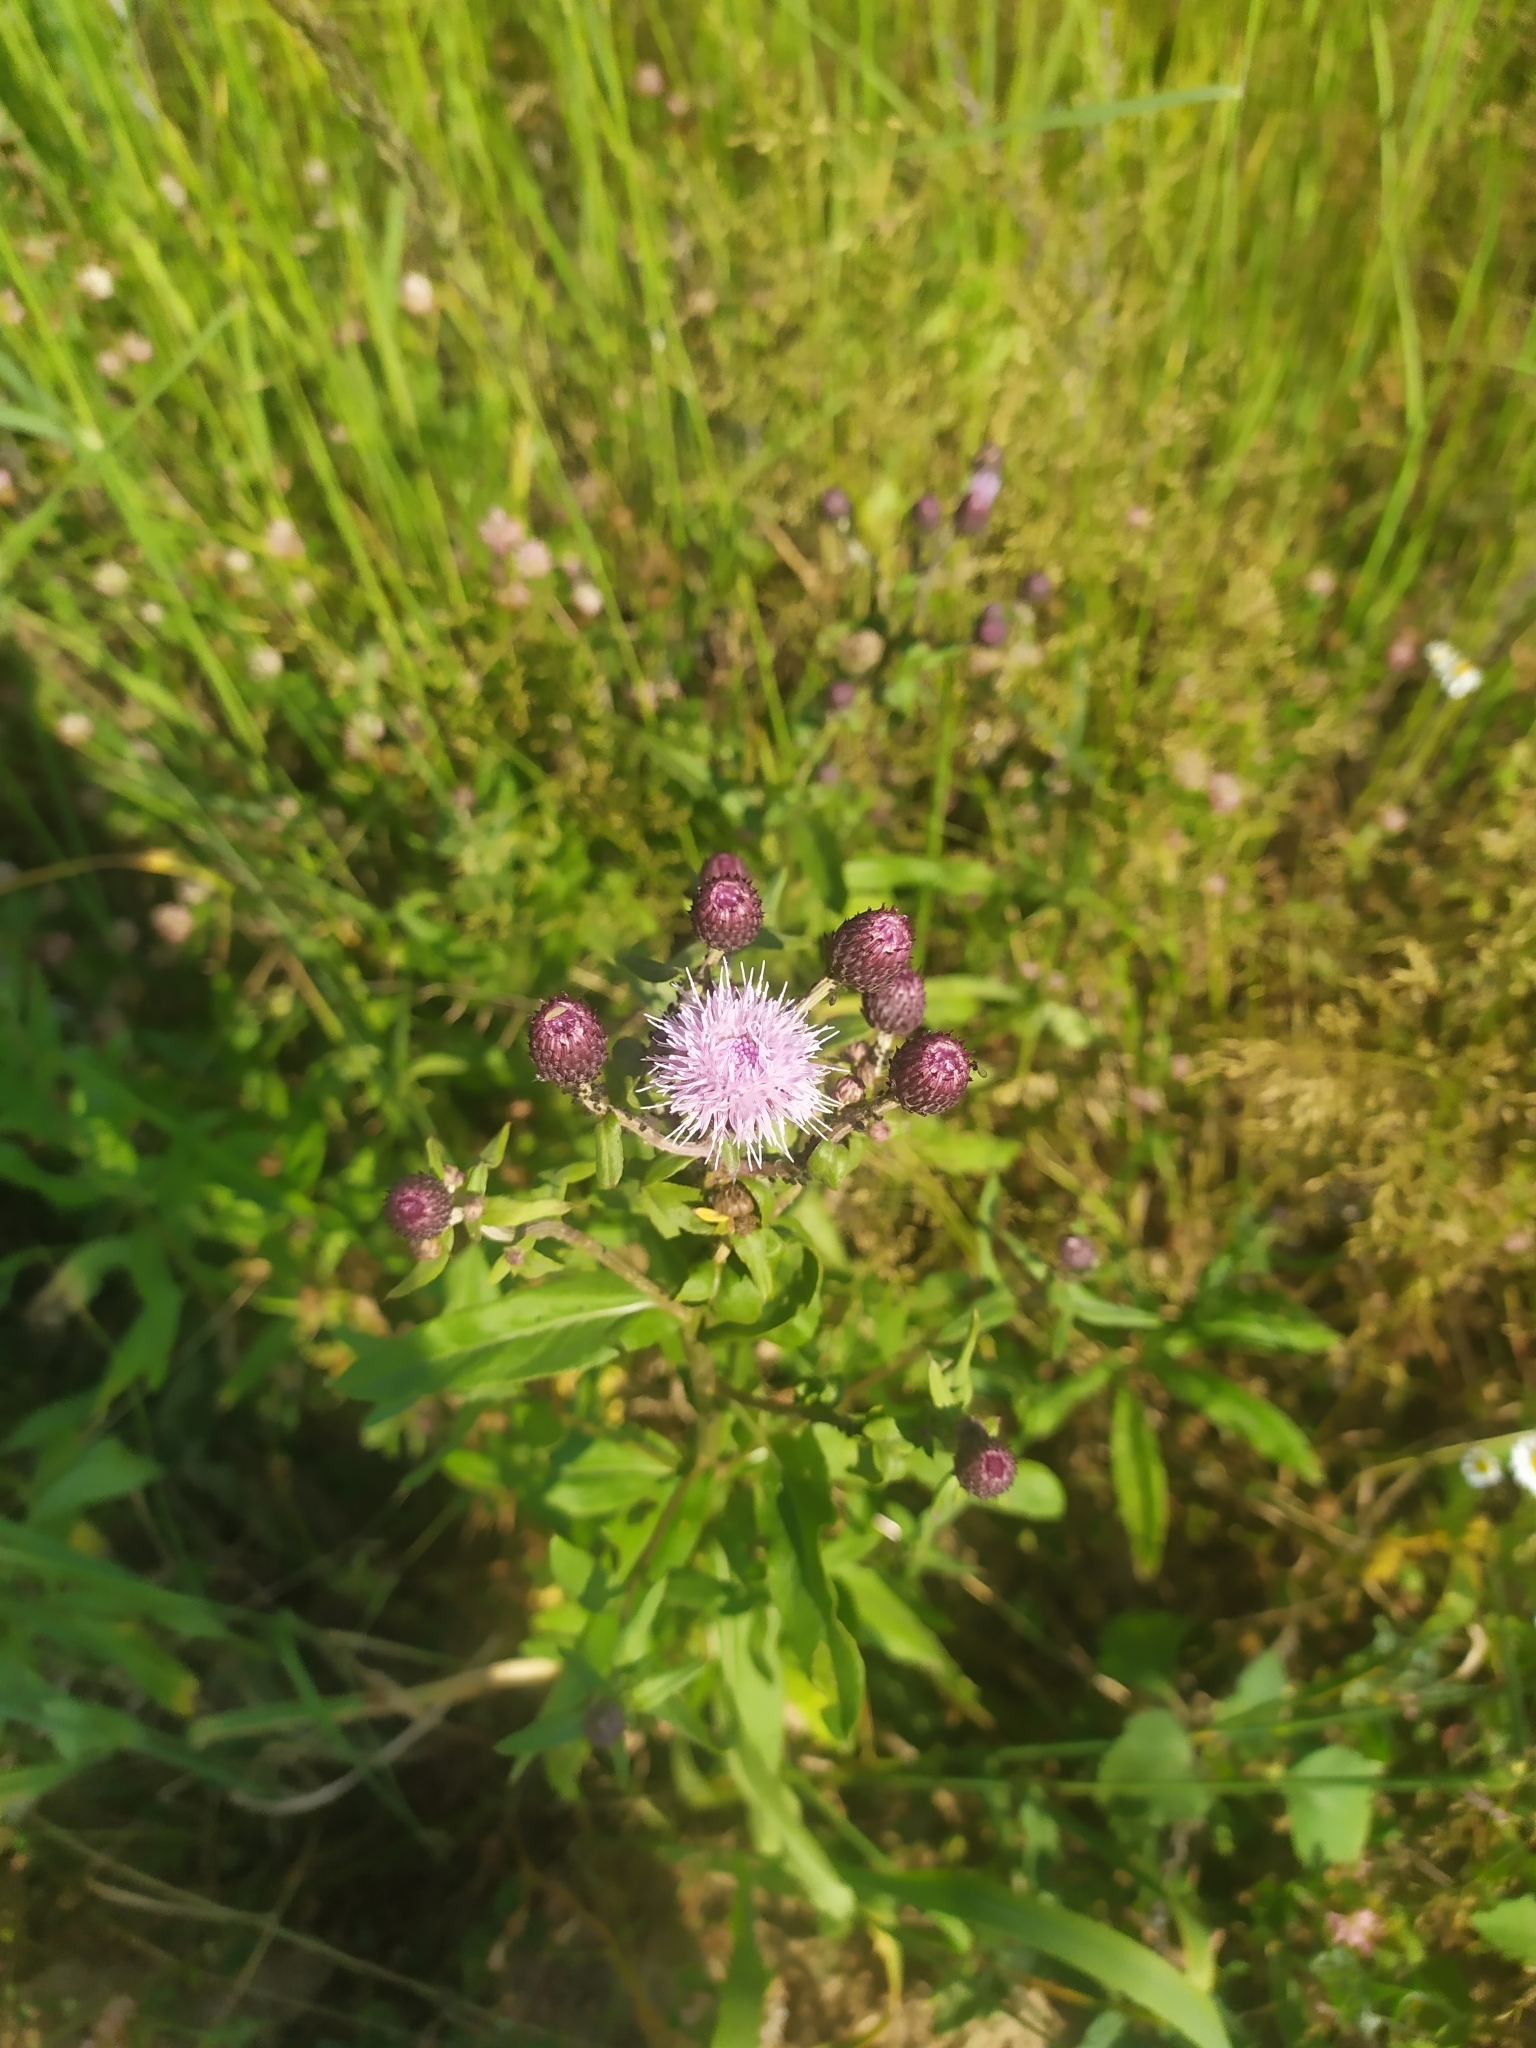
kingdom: Plantae
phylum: Tracheophyta
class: Magnoliopsida
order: Asterales
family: Asteraceae
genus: Cirsium
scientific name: Cirsium arvense
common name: Creeping thistle
